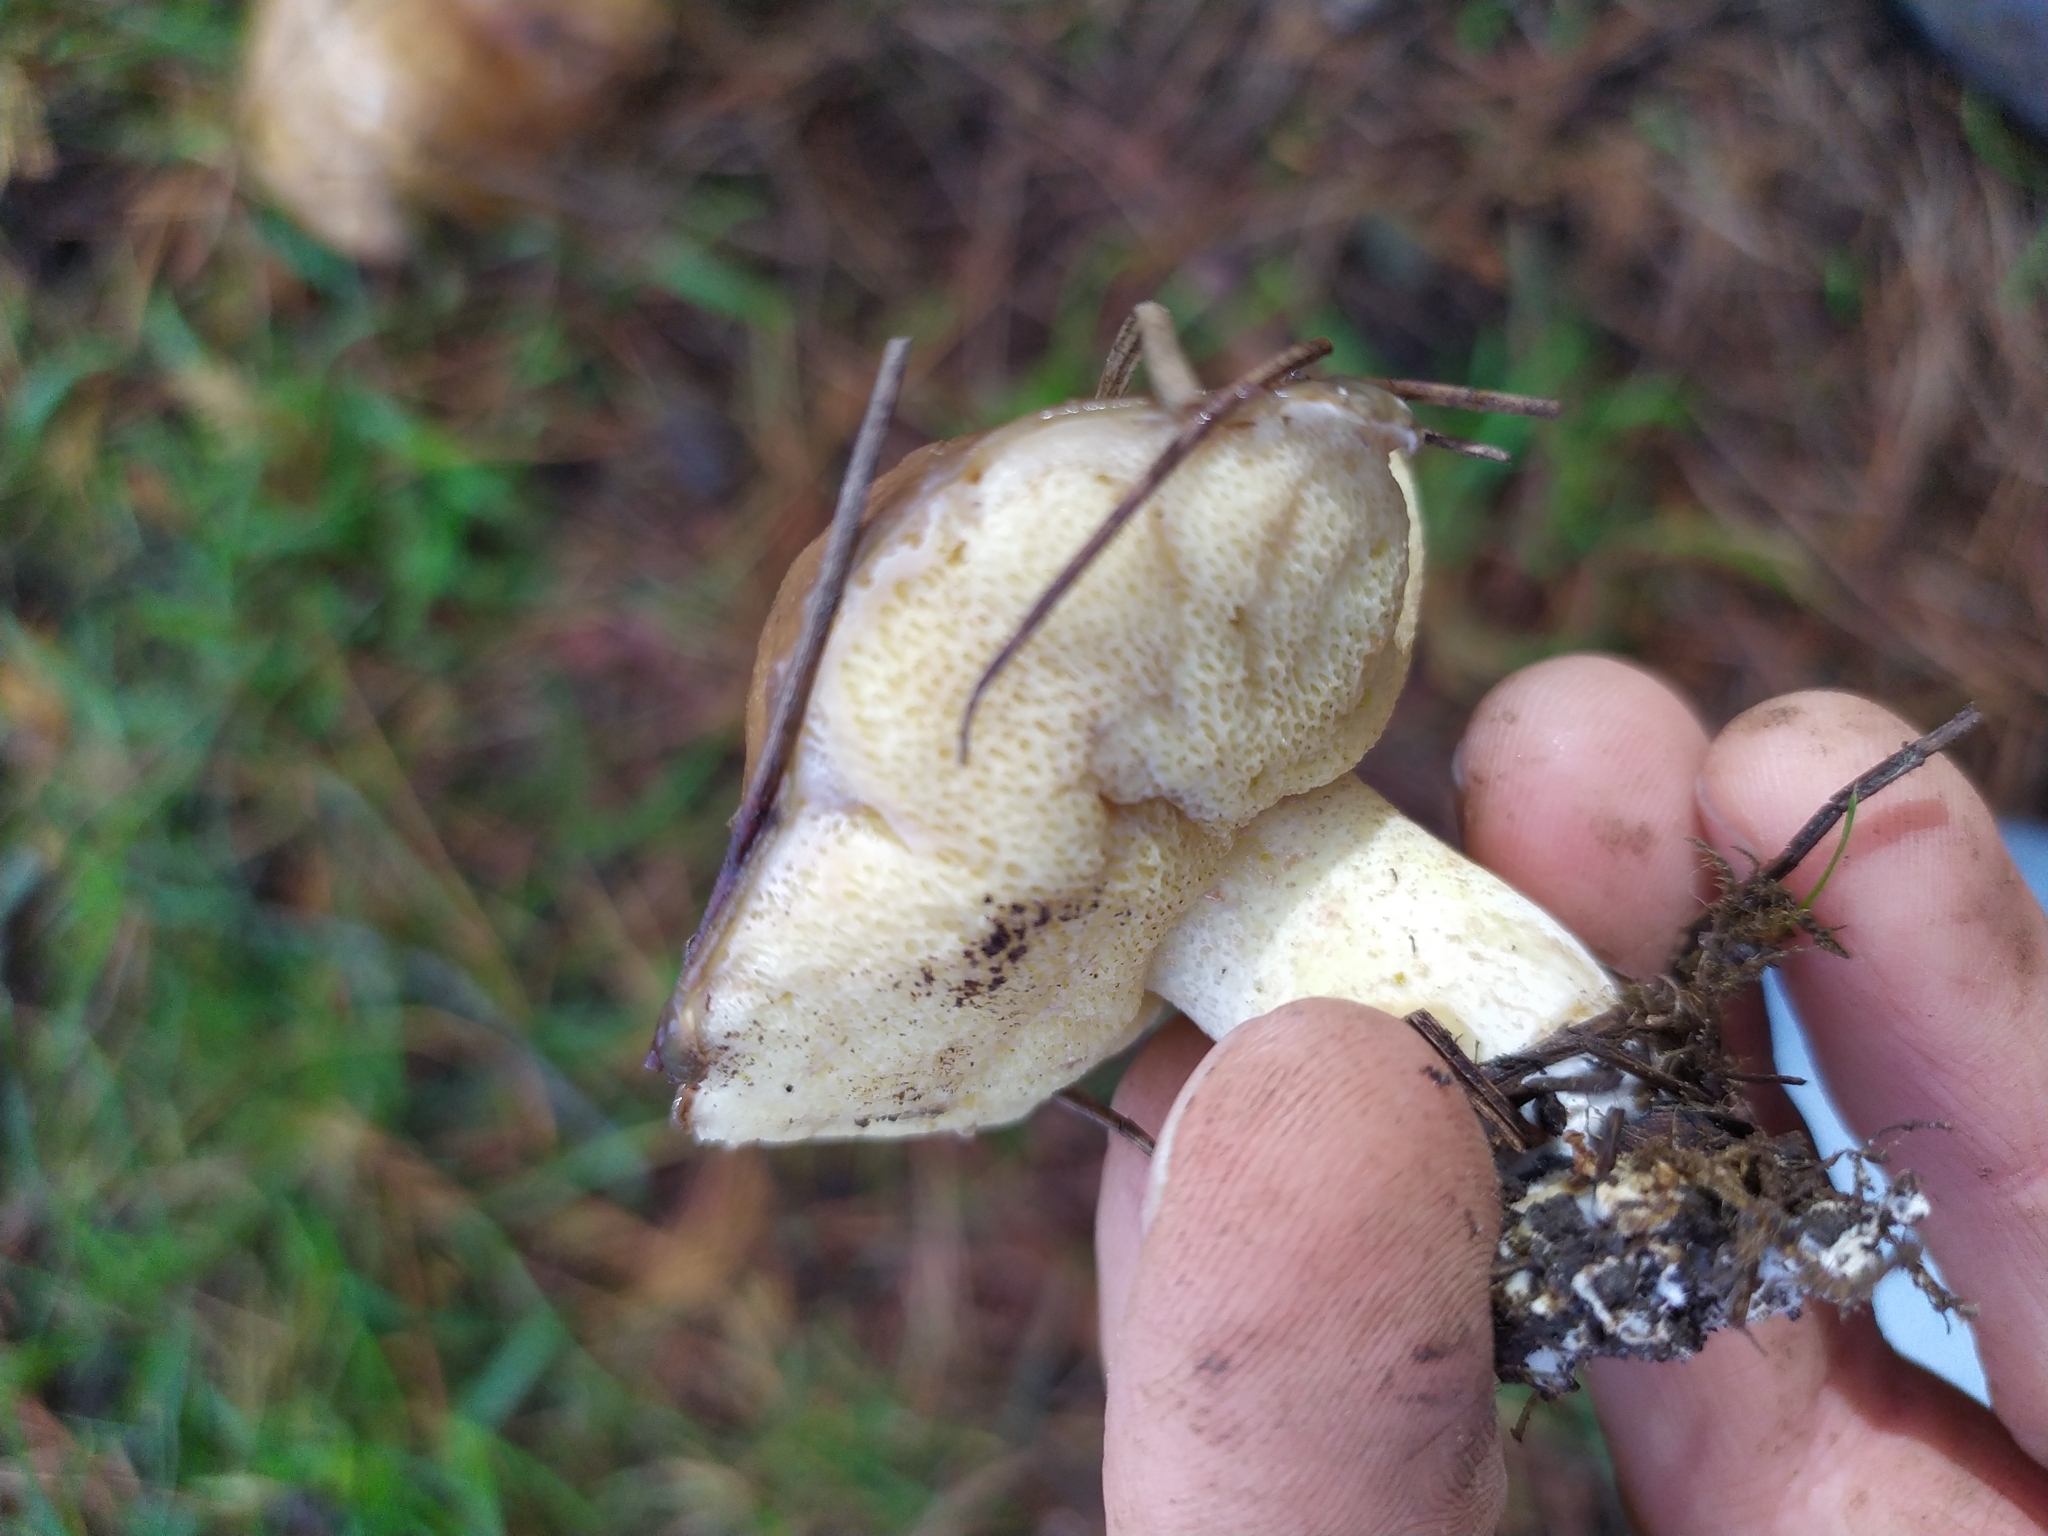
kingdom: Fungi
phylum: Basidiomycota
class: Agaricomycetes
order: Boletales
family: Suillaceae
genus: Suillus
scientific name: Suillus granulatus
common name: Weeping bolete
